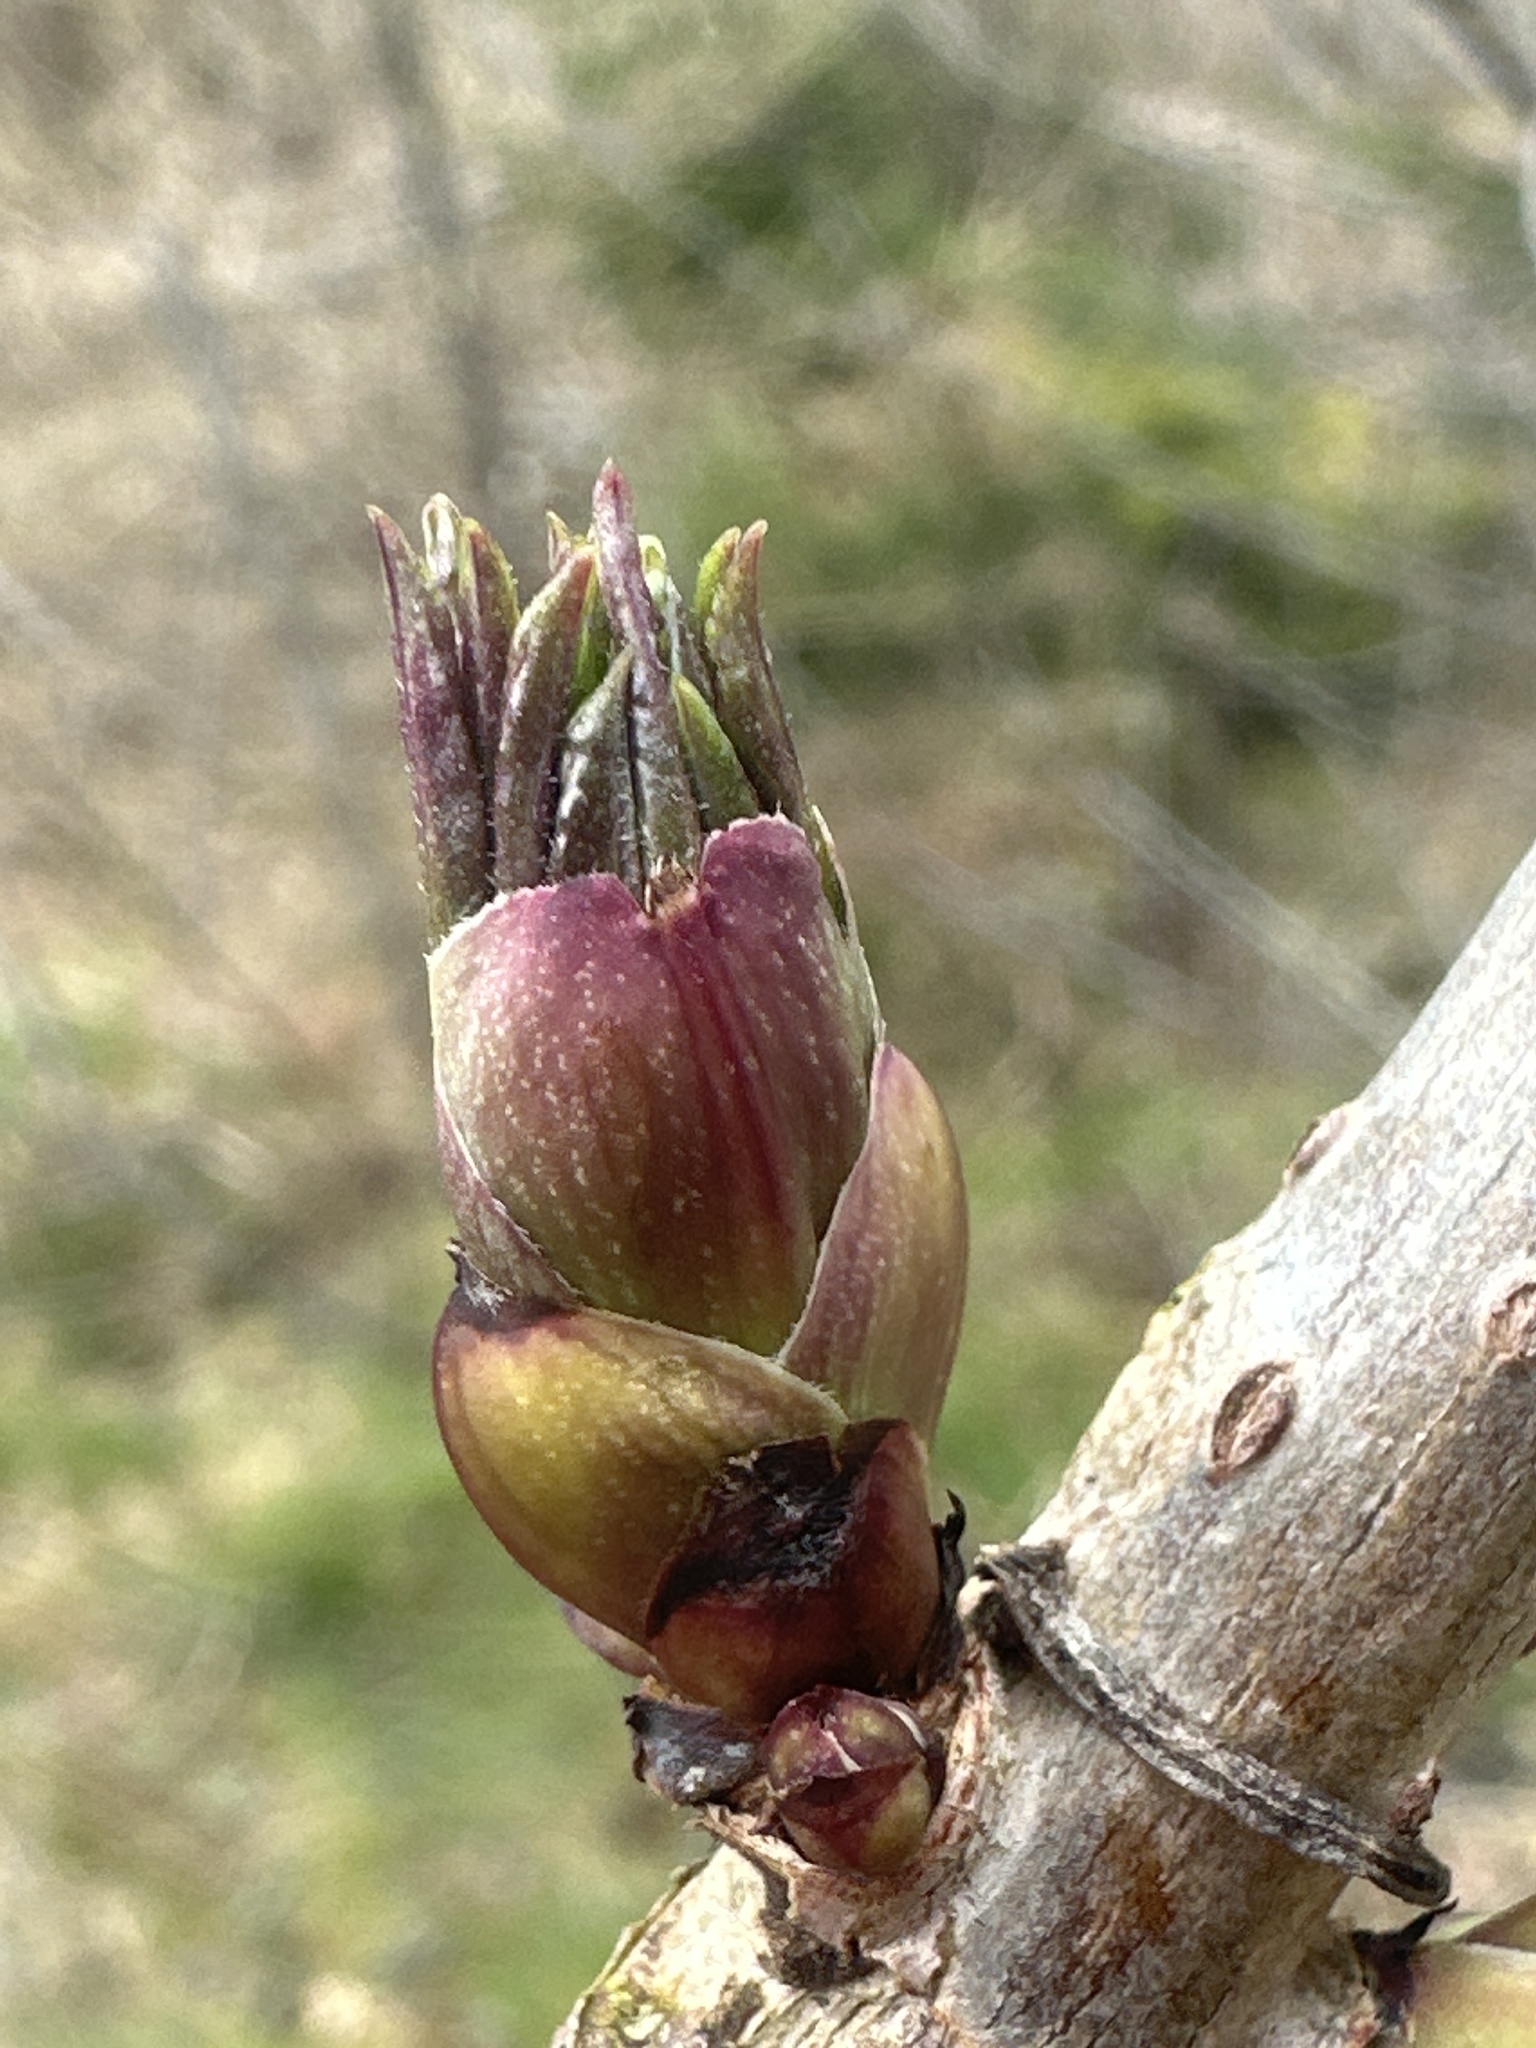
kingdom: Plantae
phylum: Tracheophyta
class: Magnoliopsida
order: Dipsacales
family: Viburnaceae
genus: Sambucus
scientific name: Sambucus racemosa
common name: Red-berried elder
